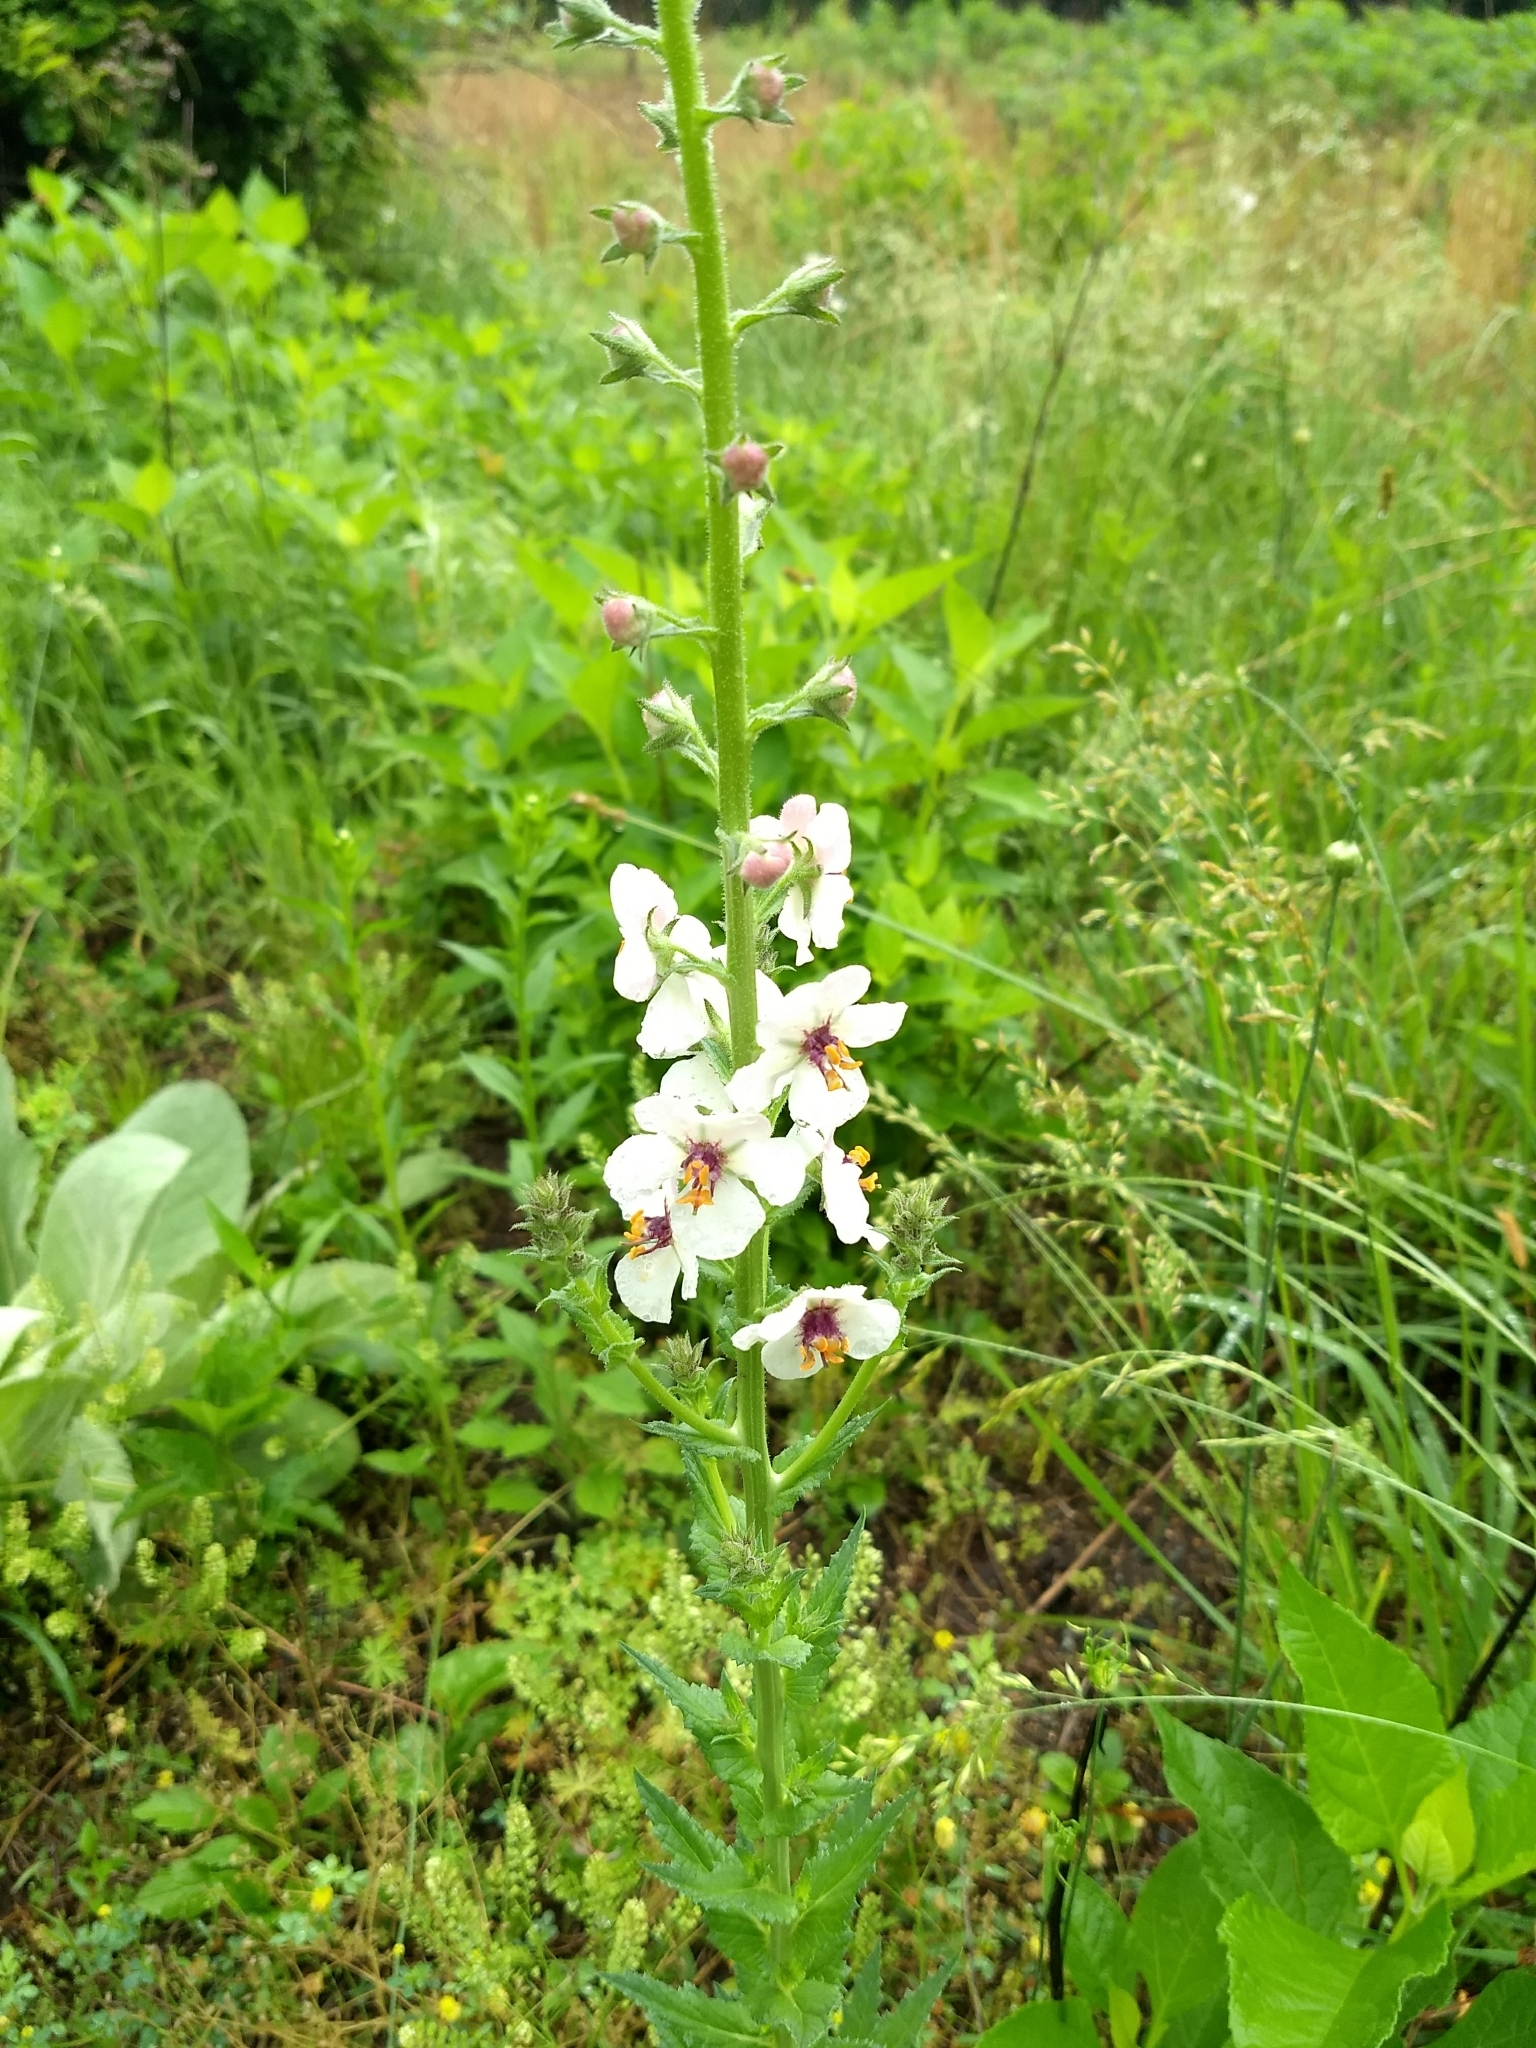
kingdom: Plantae
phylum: Tracheophyta
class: Magnoliopsida
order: Lamiales
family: Scrophulariaceae
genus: Verbascum
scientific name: Verbascum blattaria
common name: Moth mullein
